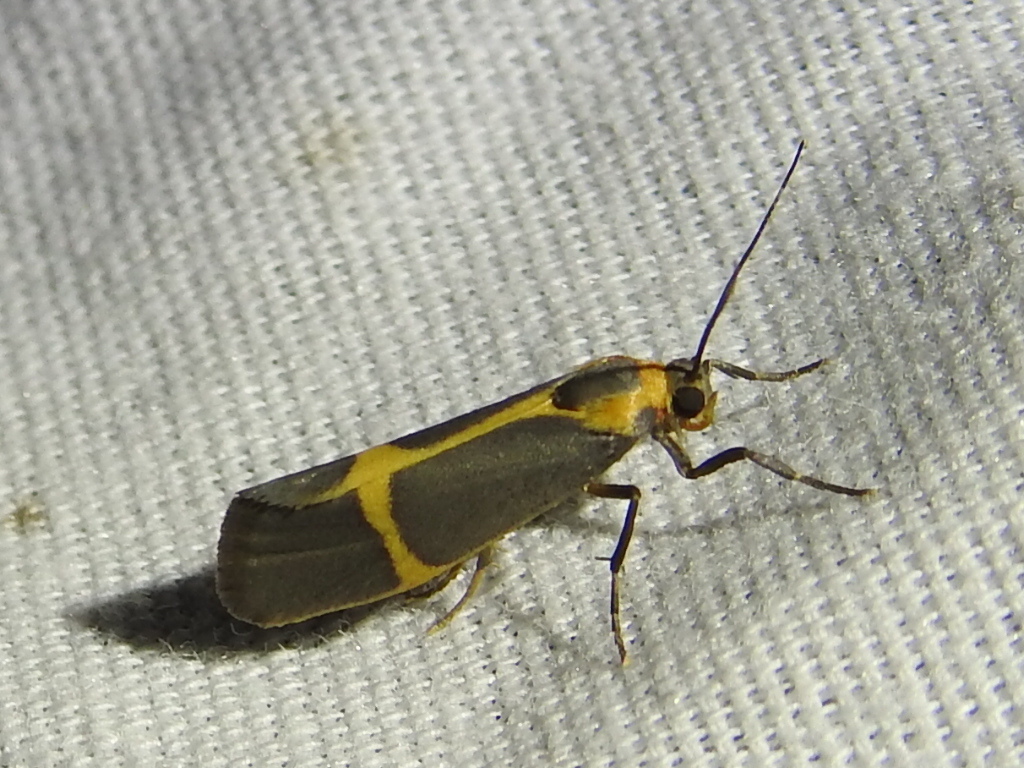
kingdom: Animalia
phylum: Arthropoda
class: Insecta
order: Lepidoptera
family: Erebidae
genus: Cisthene
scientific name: Cisthene barnesii
